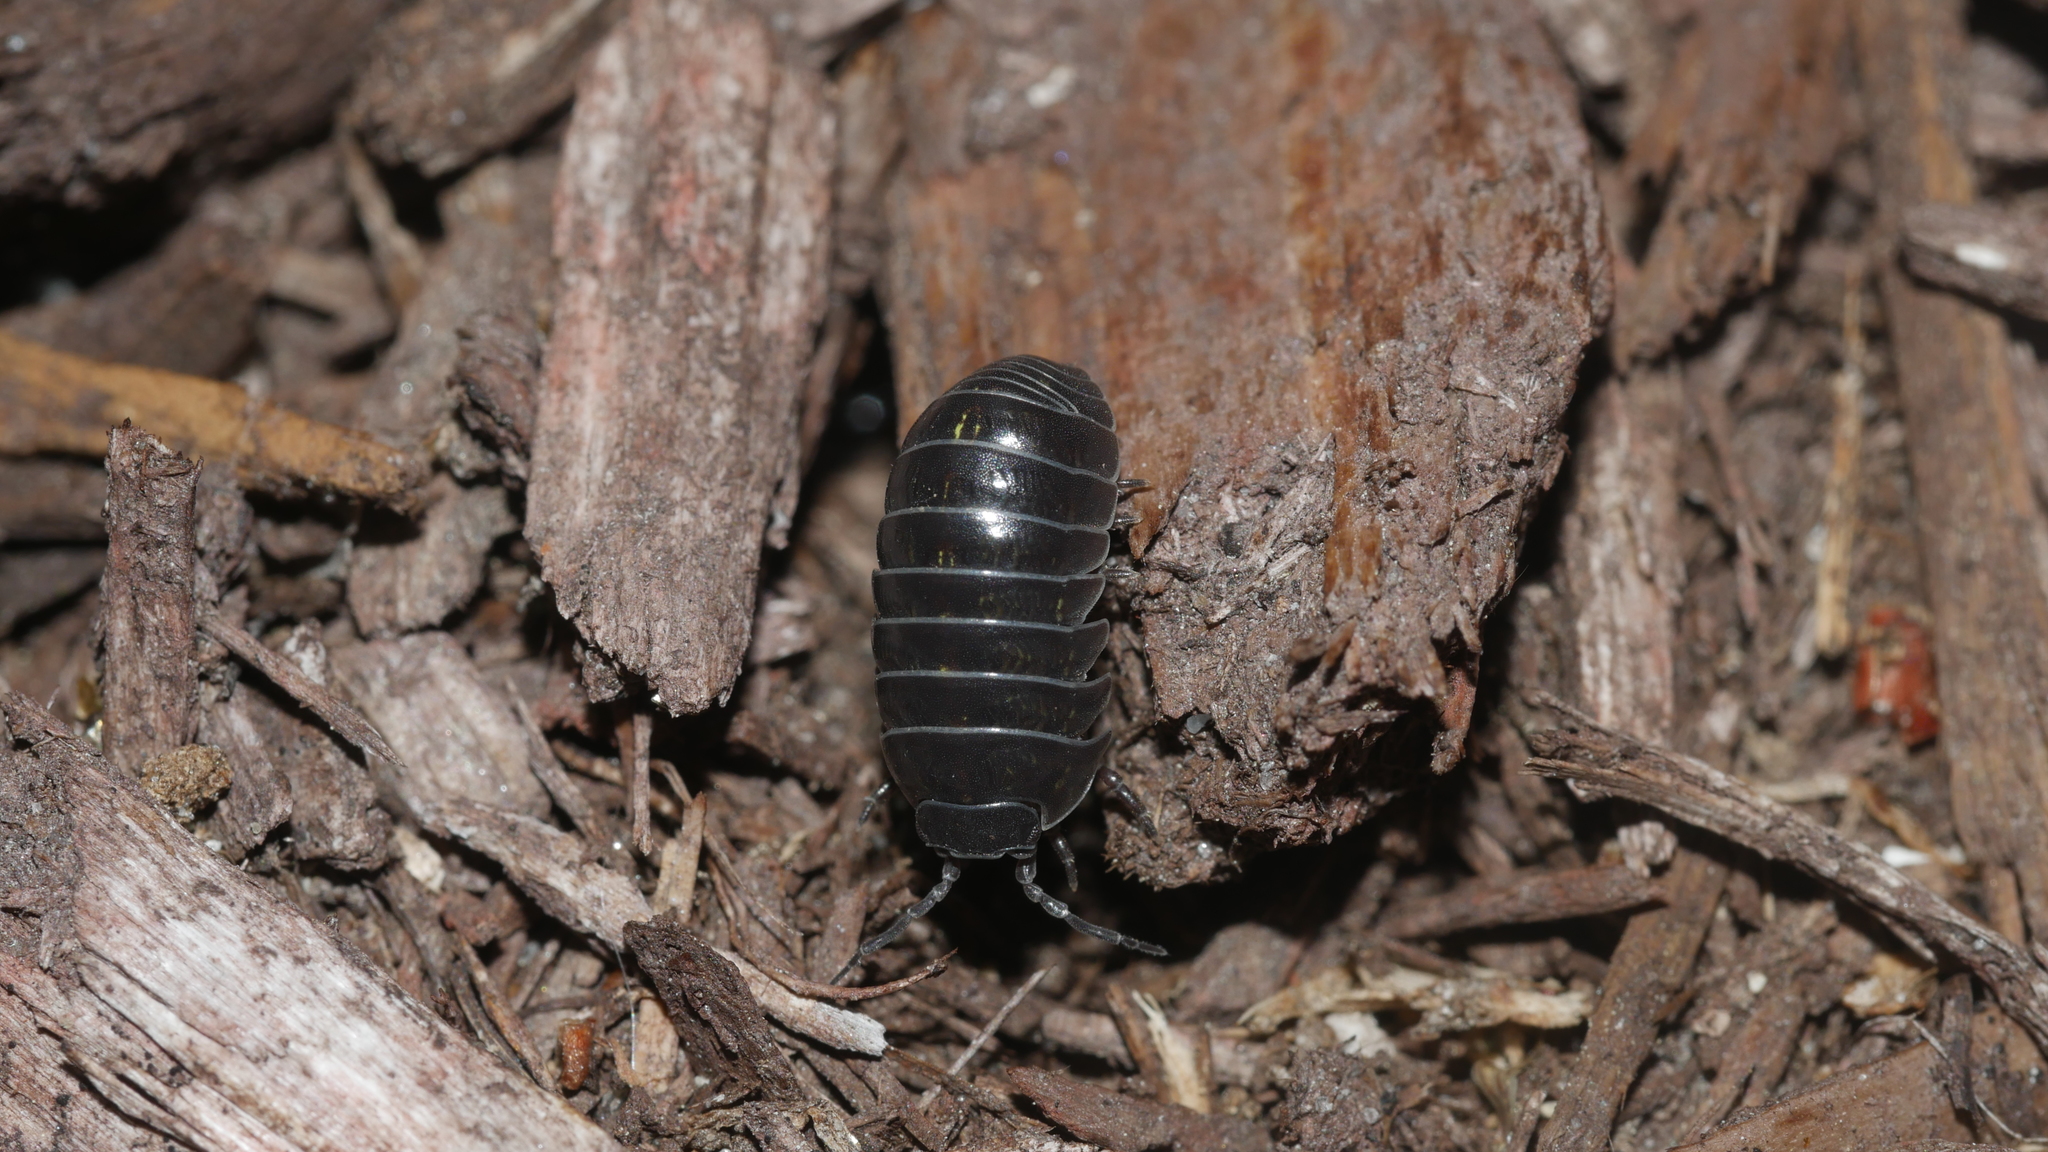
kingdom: Animalia
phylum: Arthropoda
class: Malacostraca
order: Isopoda
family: Armadillidiidae
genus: Armadillidium
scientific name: Armadillidium vulgare
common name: Common pill woodlouse
